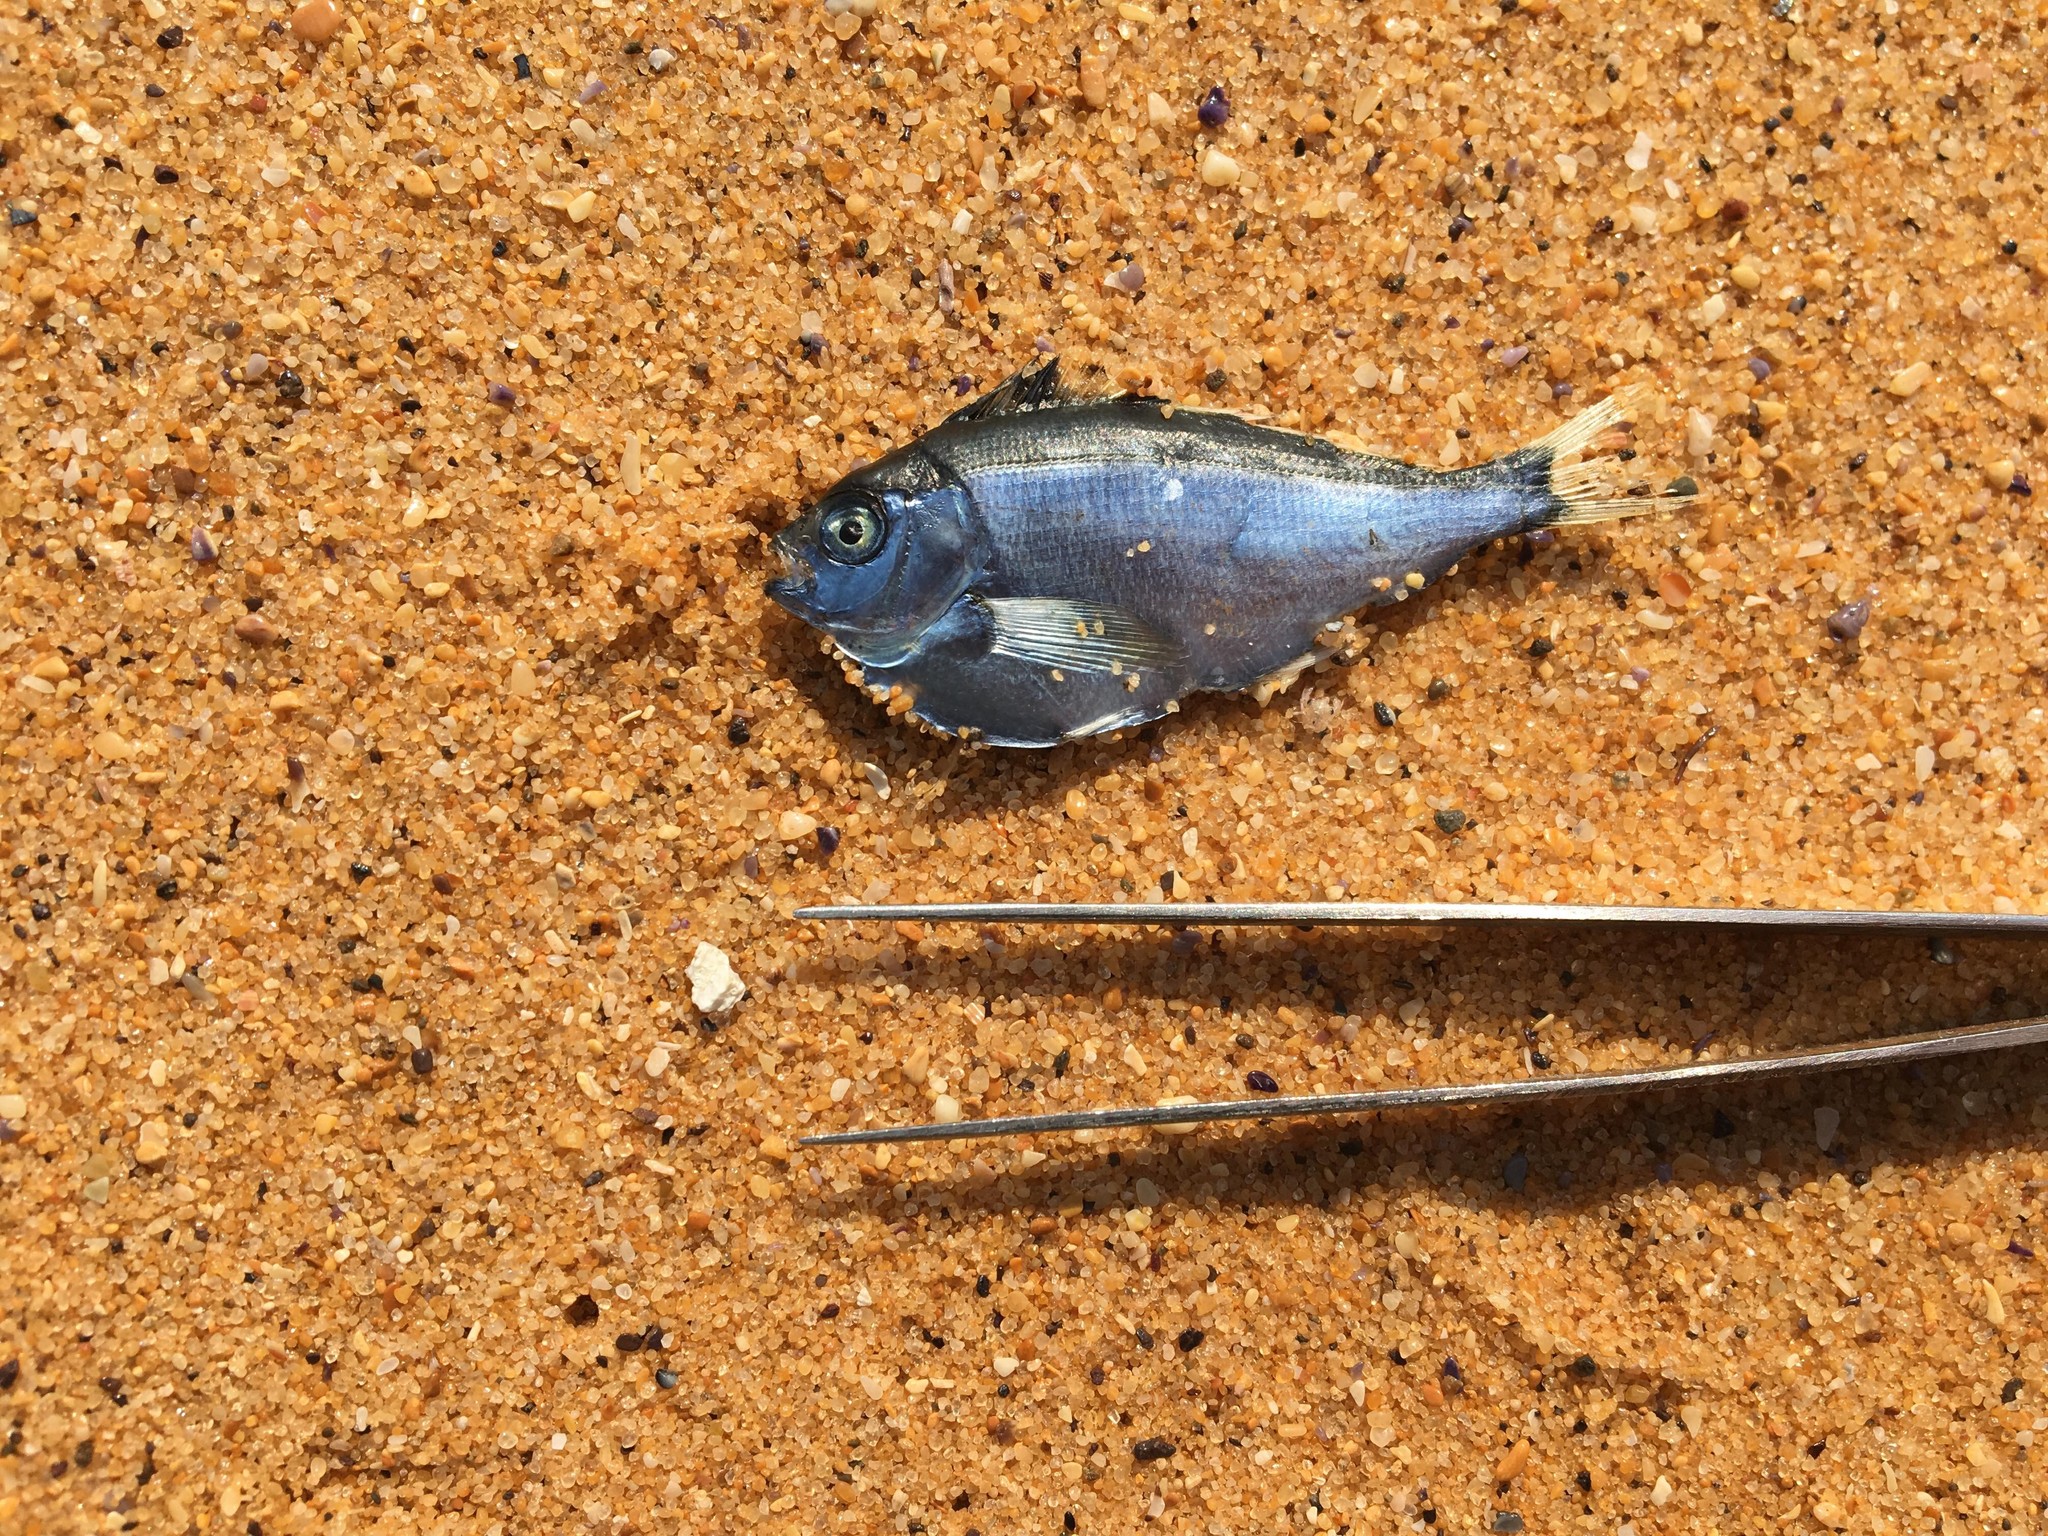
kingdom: Animalia
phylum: Chordata
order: Perciformes
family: Cheilodactylidae
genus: Nemadactylus
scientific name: Nemadactylus
